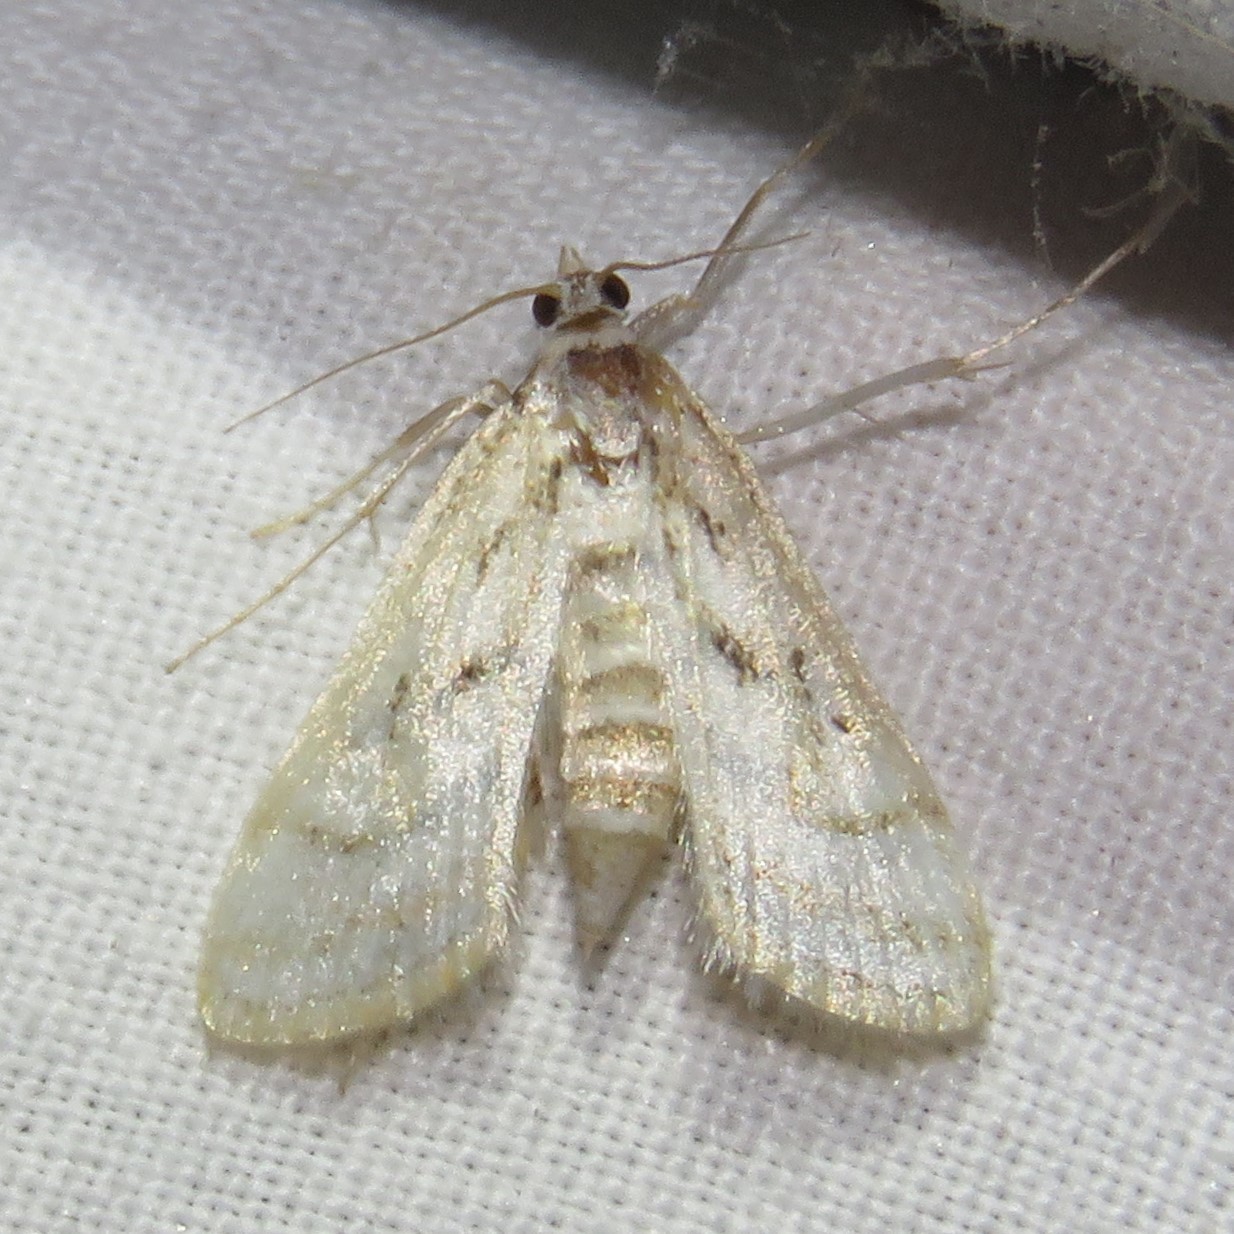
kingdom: Animalia
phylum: Arthropoda
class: Insecta
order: Lepidoptera
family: Crambidae
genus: Parapoynx
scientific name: Parapoynx badiusalis
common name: Chestnut-marked pondweed moth
